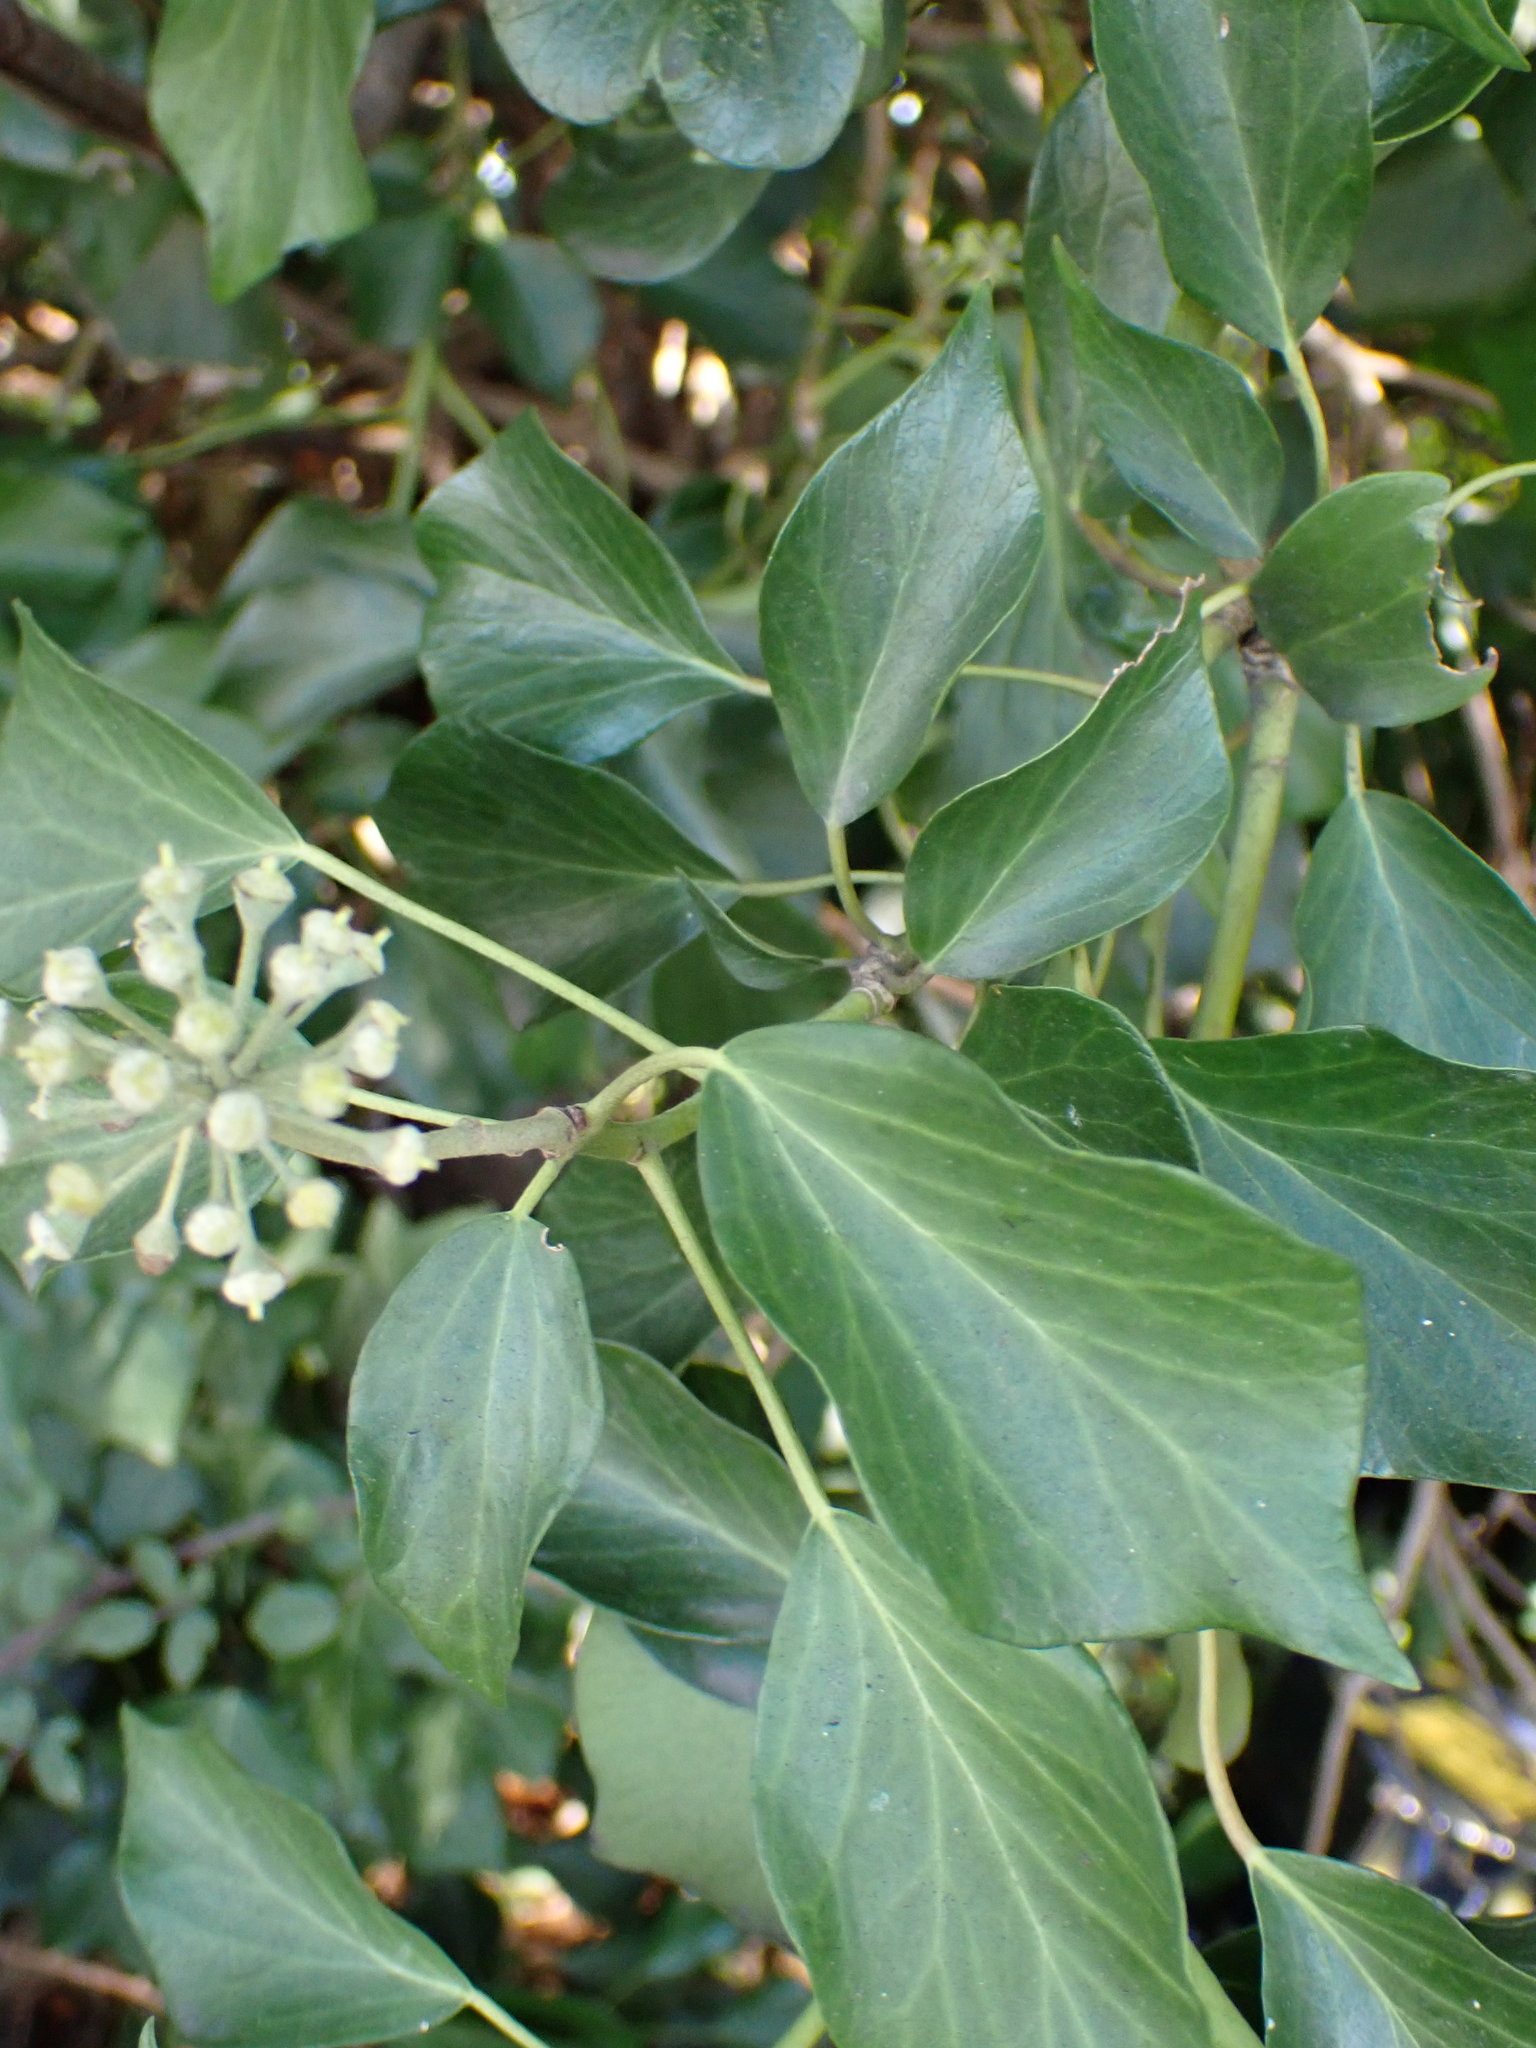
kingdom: Plantae
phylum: Tracheophyta
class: Magnoliopsida
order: Apiales
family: Araliaceae
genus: Hedera
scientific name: Hedera helix
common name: Ivy
